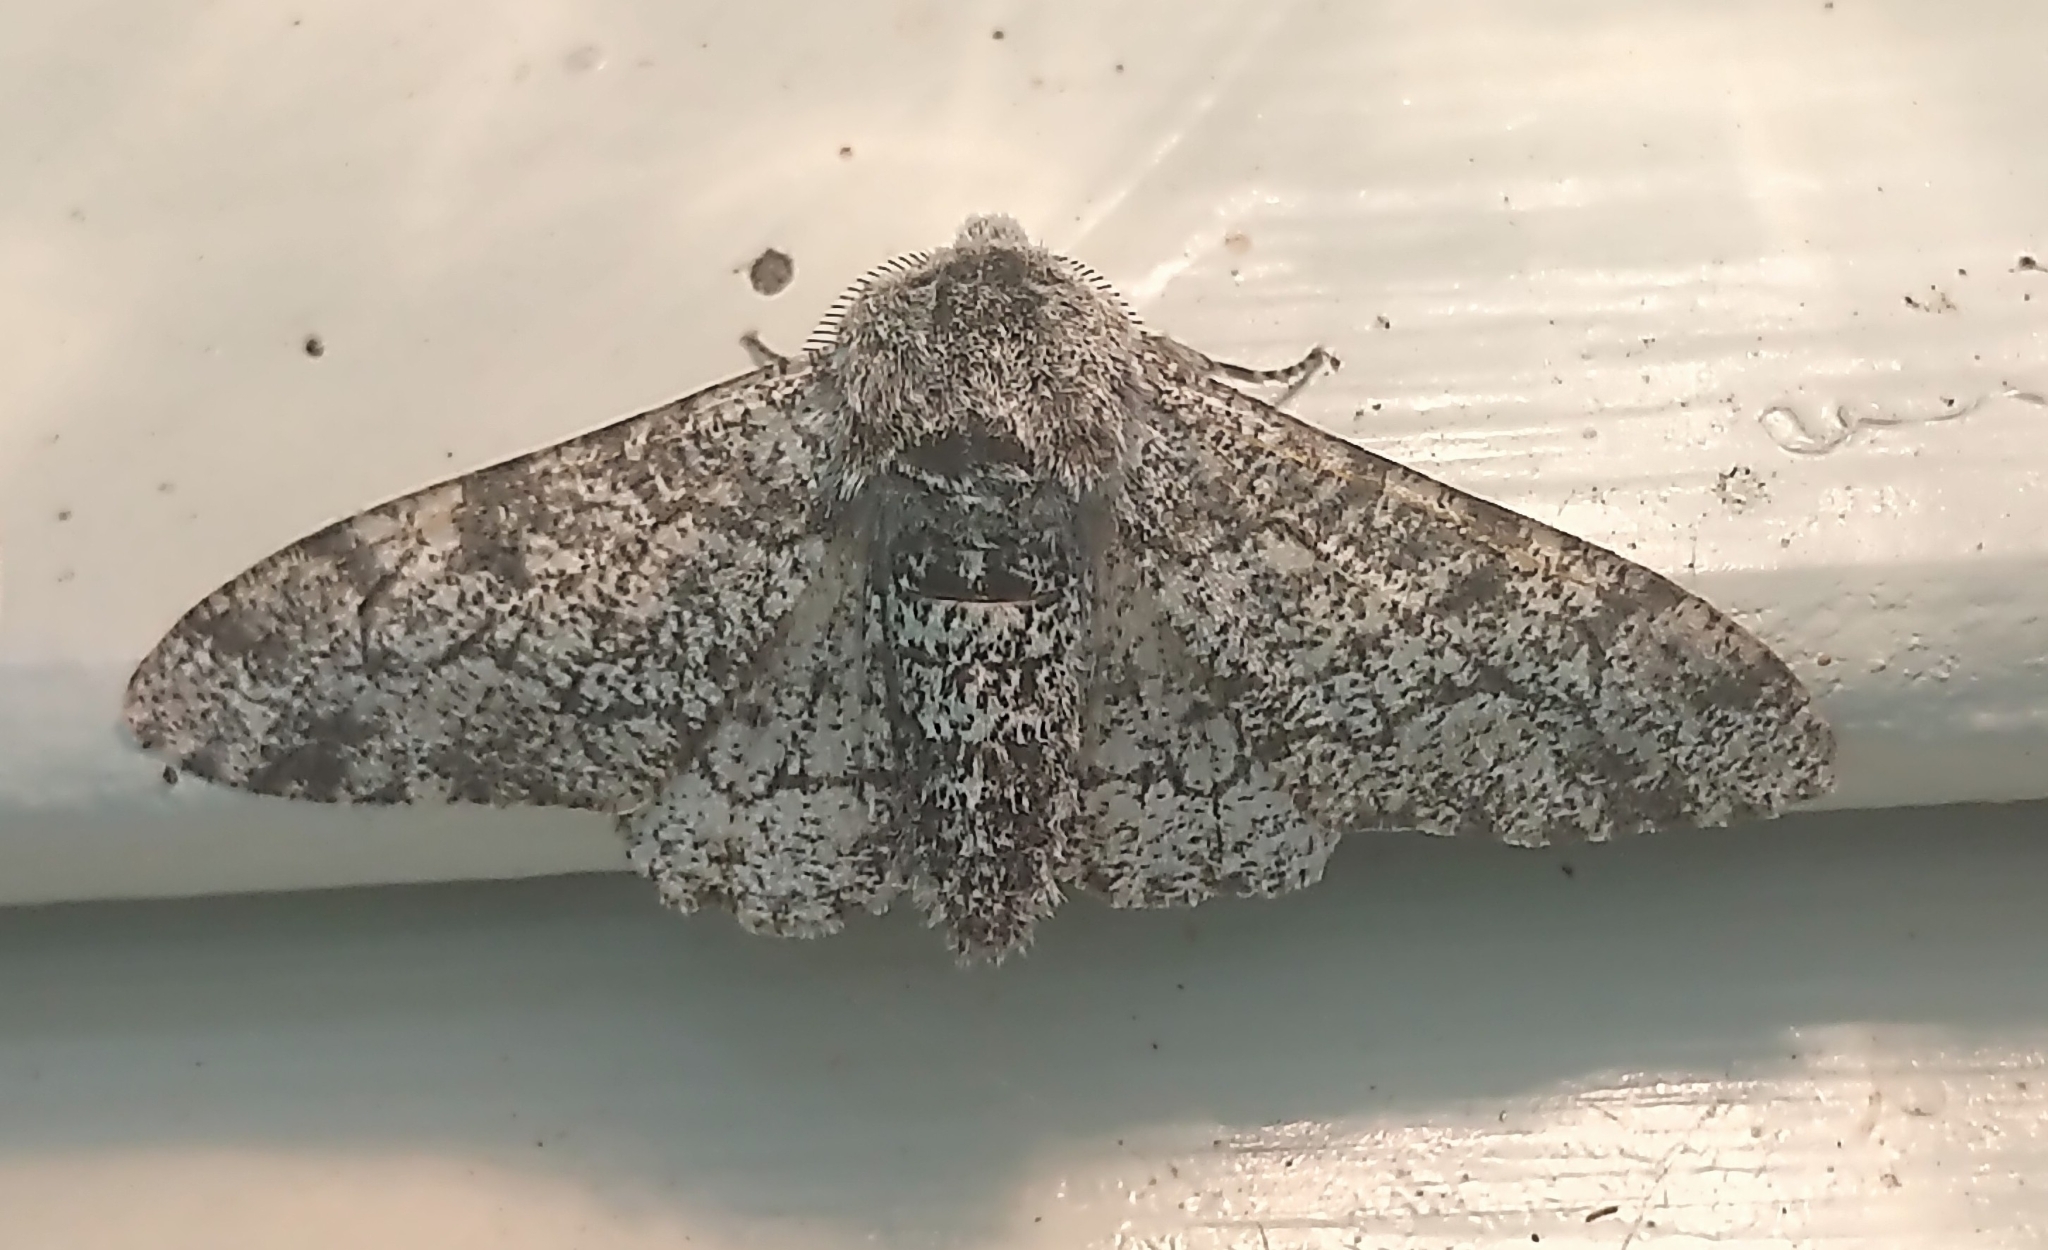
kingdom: Animalia
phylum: Arthropoda
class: Insecta
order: Lepidoptera
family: Geometridae
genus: Biston
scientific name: Biston betularia
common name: Peppered moth
